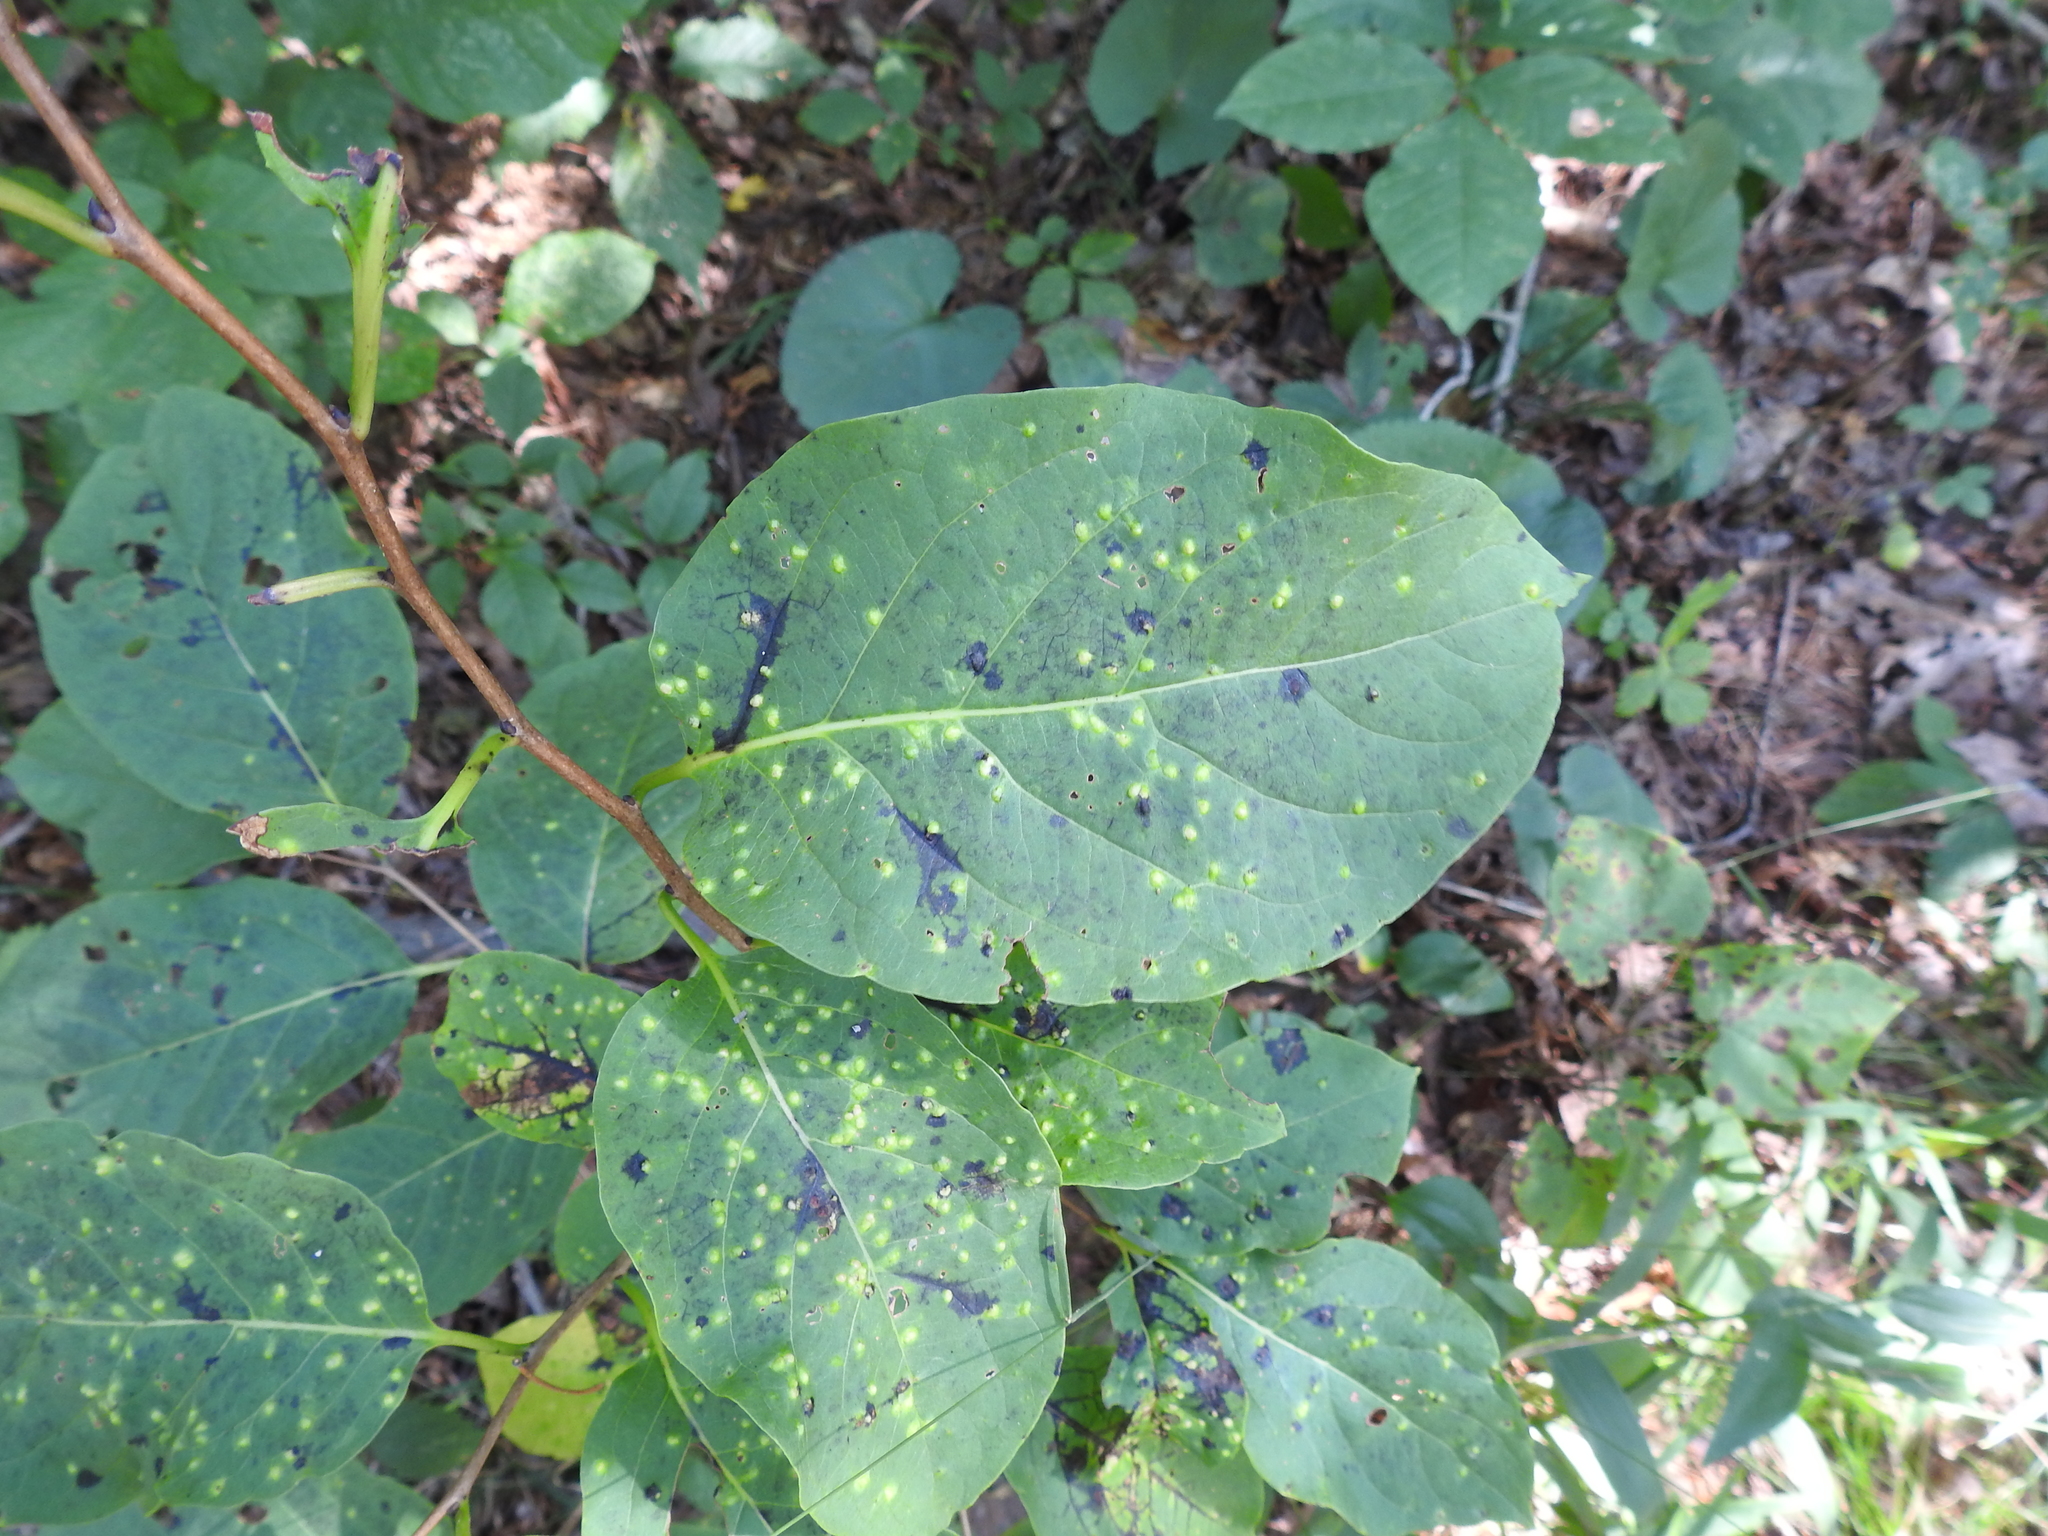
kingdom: Plantae
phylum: Tracheophyta
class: Magnoliopsida
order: Ericales
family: Ebenaceae
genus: Diospyros
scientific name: Diospyros virginiana
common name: Persimmon
